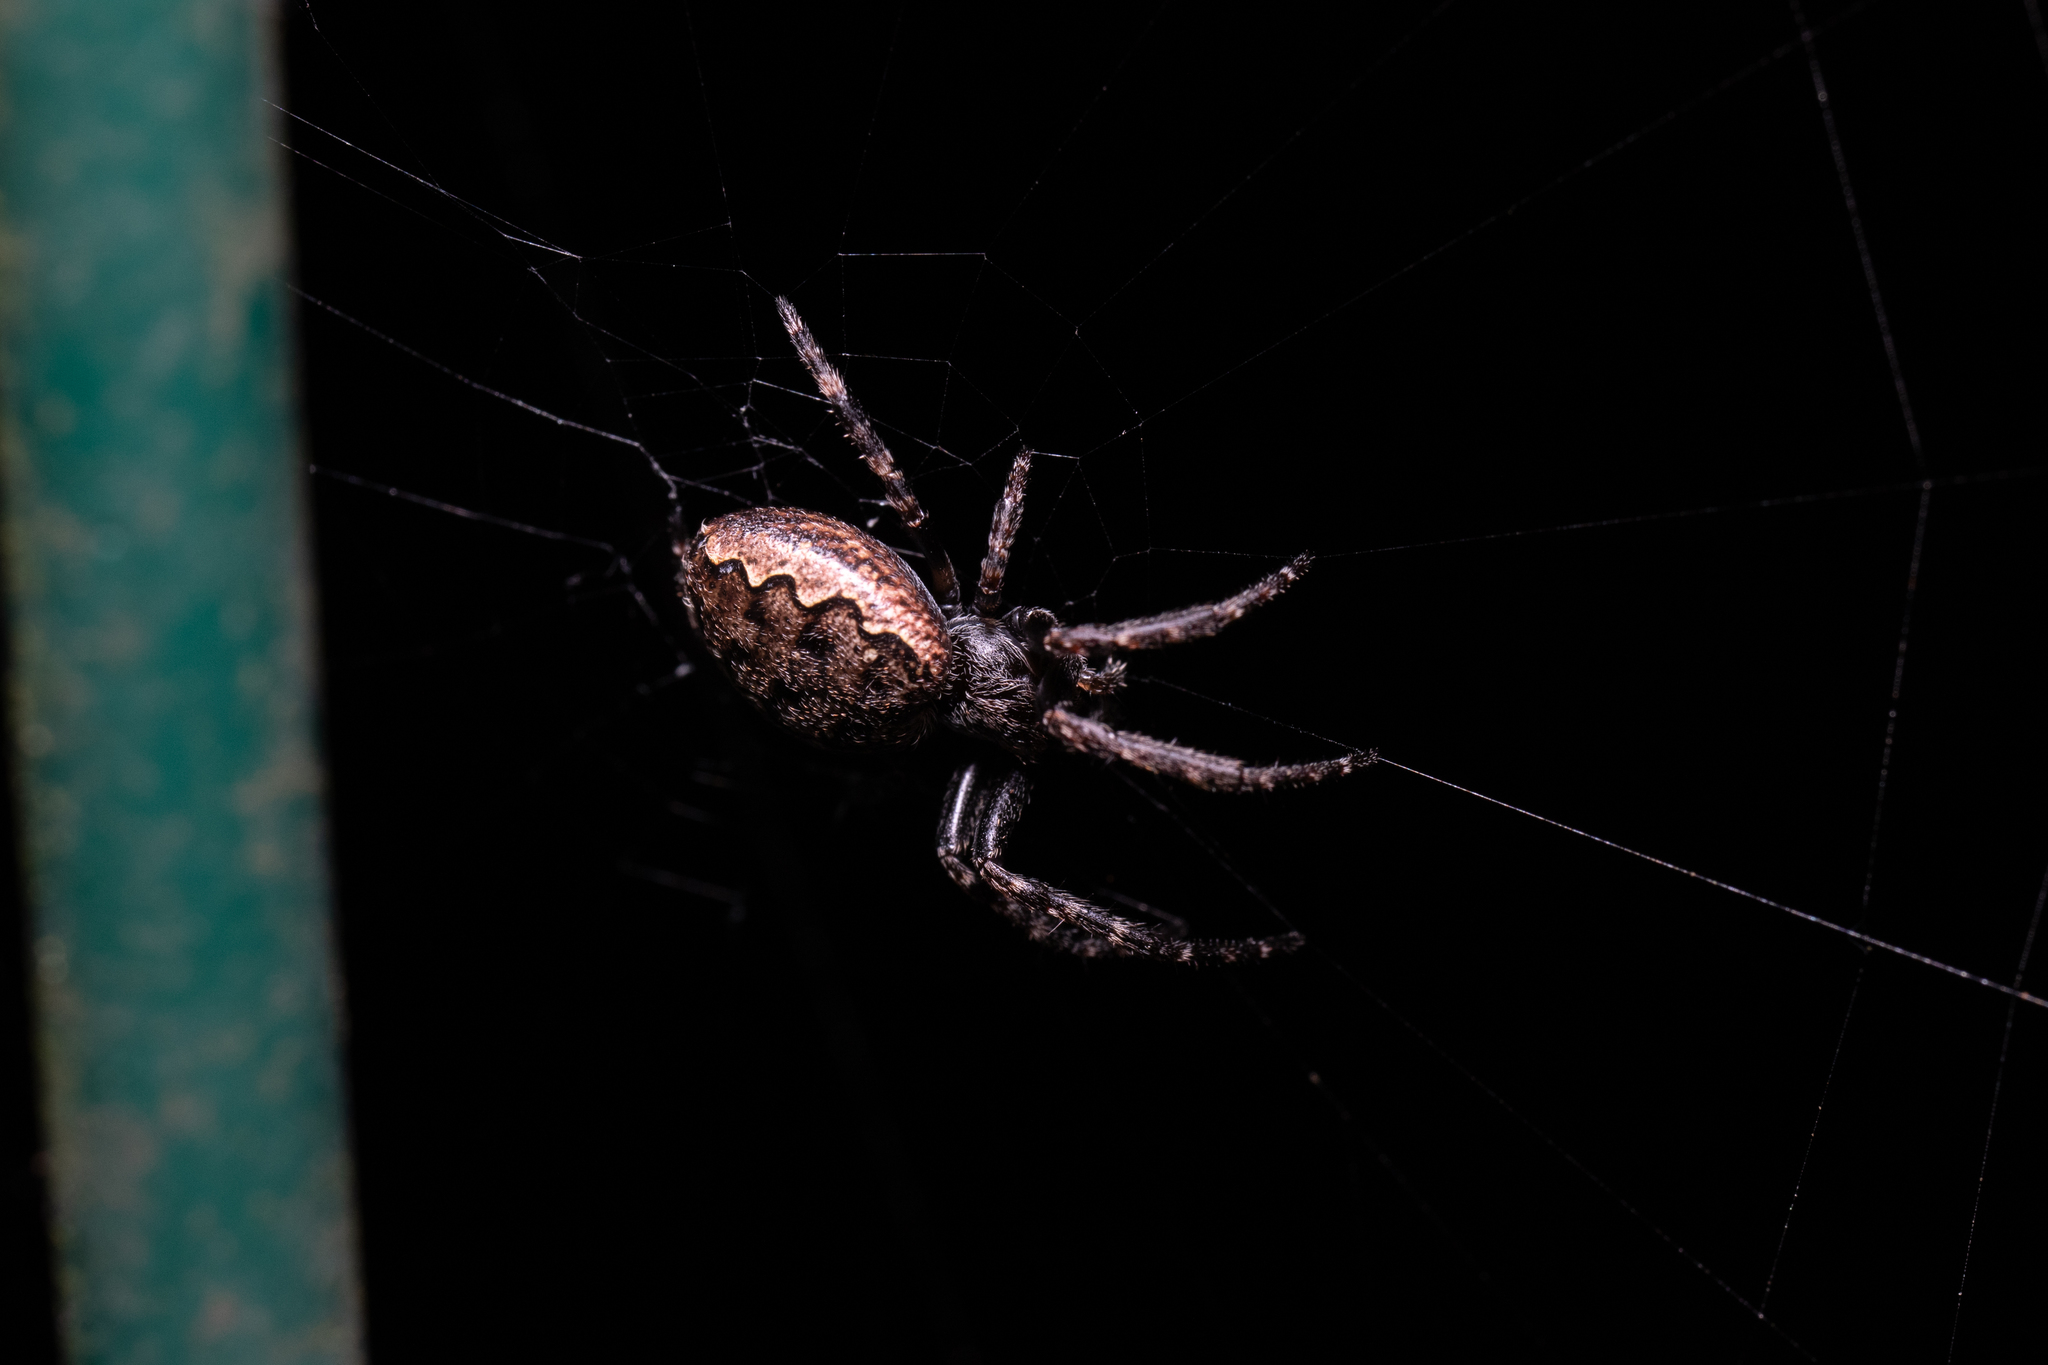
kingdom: Animalia
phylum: Arthropoda
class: Arachnida
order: Araneae
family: Araneidae
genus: Nuctenea
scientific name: Nuctenea umbratica
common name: Toad spider
